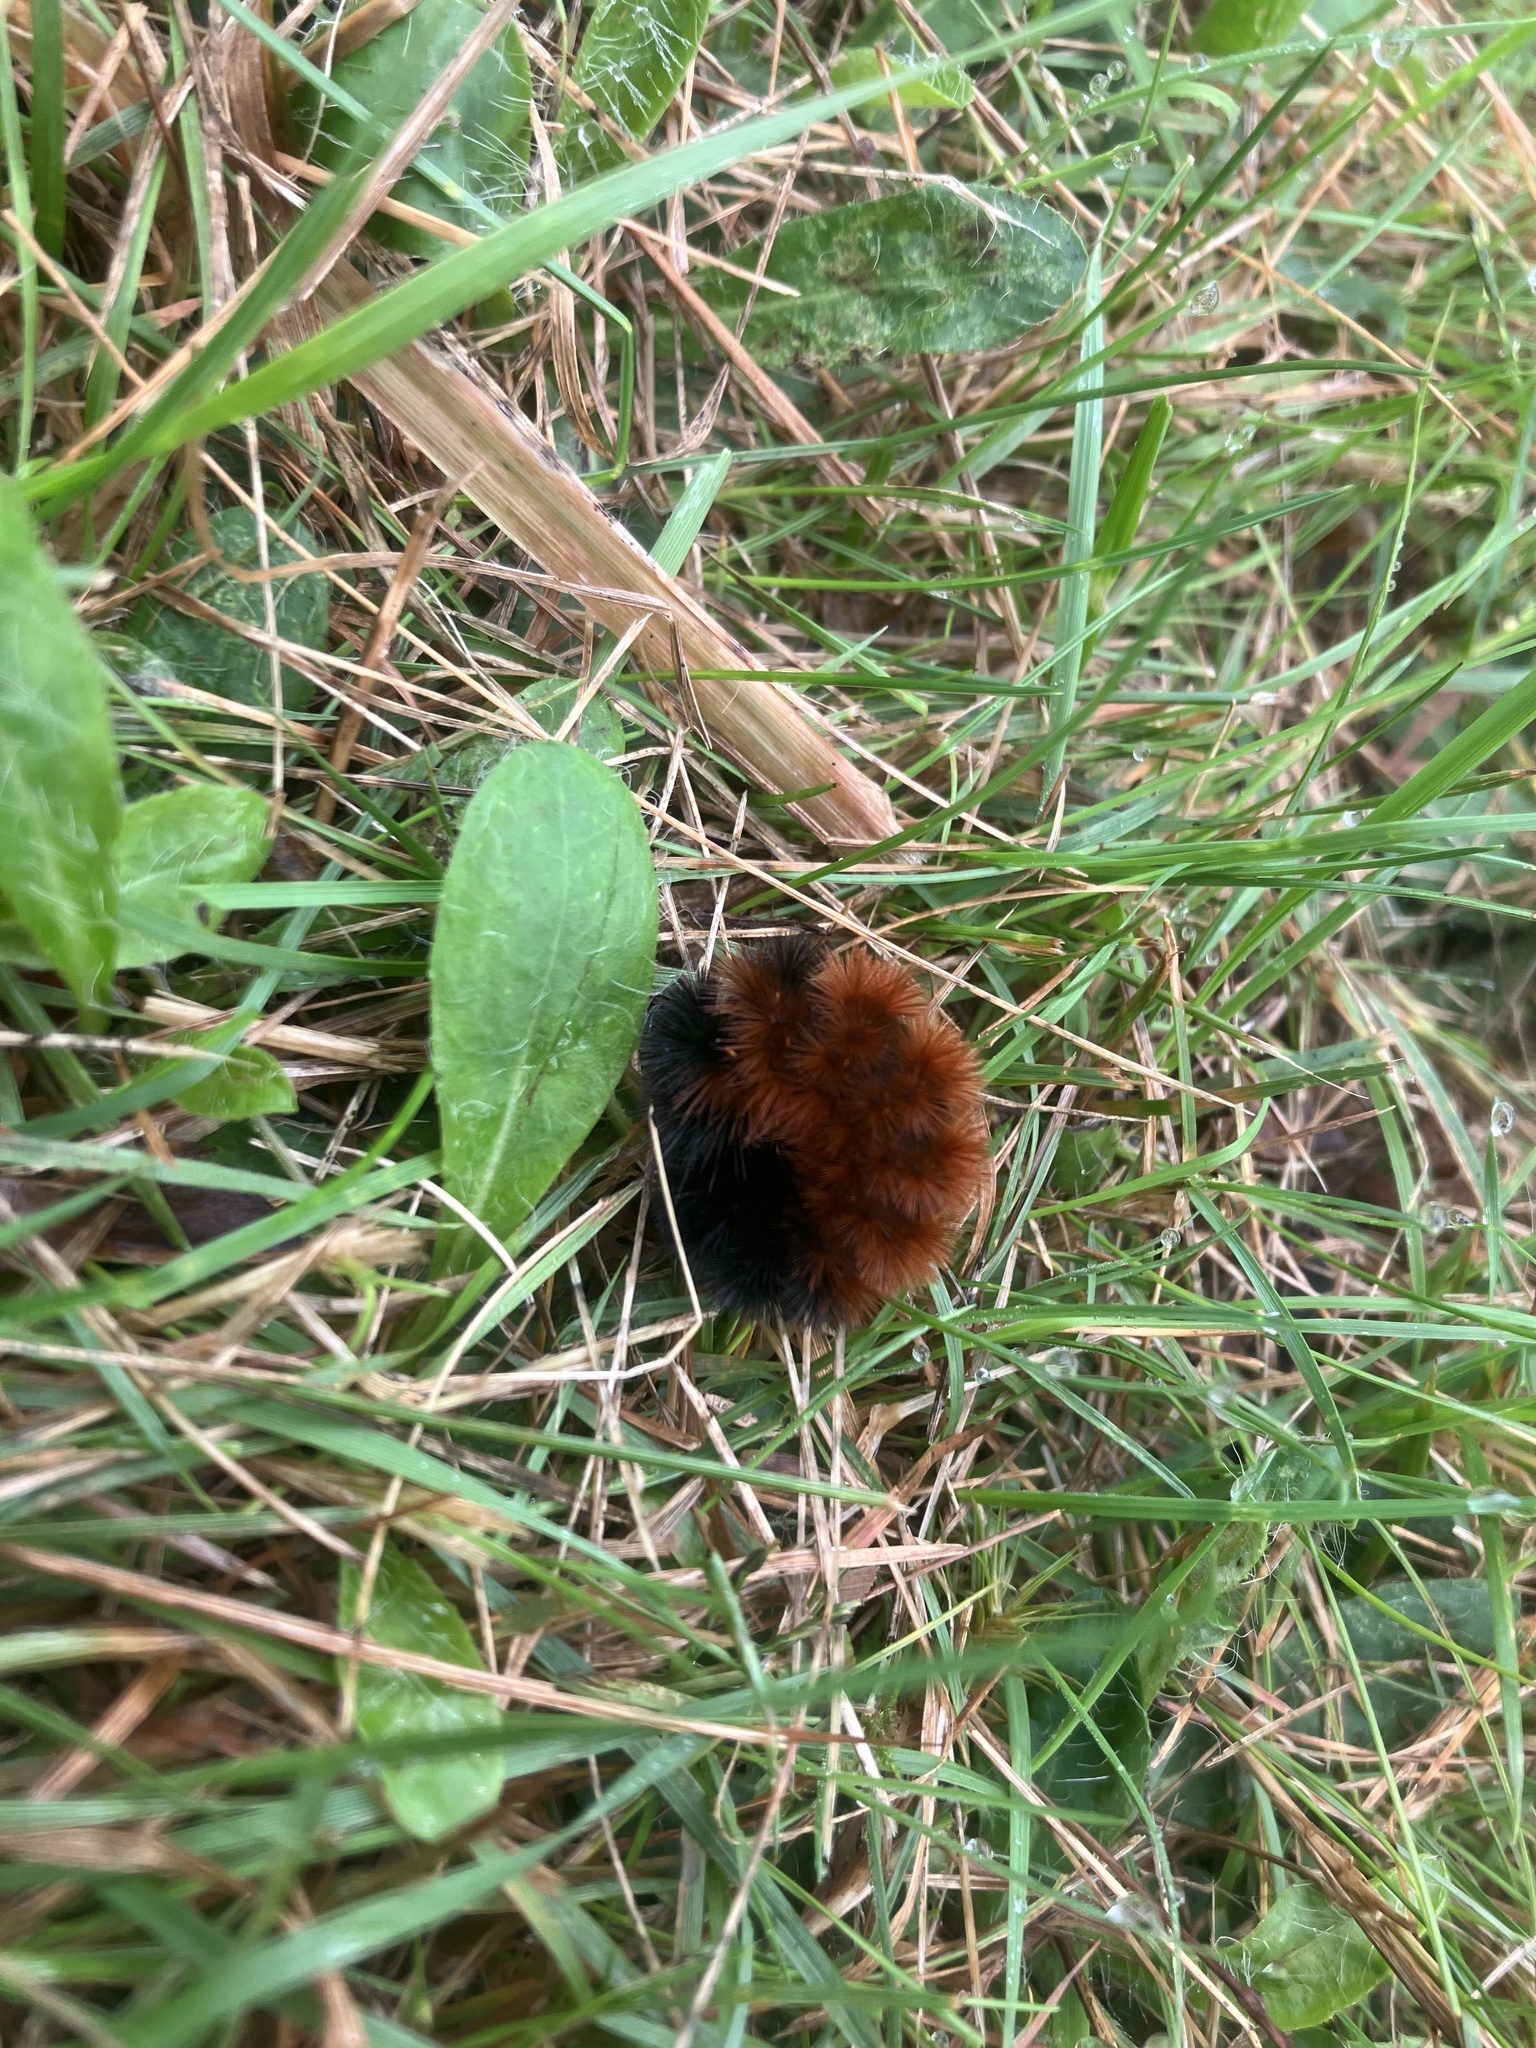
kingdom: Animalia
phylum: Arthropoda
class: Insecta
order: Lepidoptera
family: Erebidae
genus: Pyrrharctia
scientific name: Pyrrharctia isabella
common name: Isabella tiger moth
